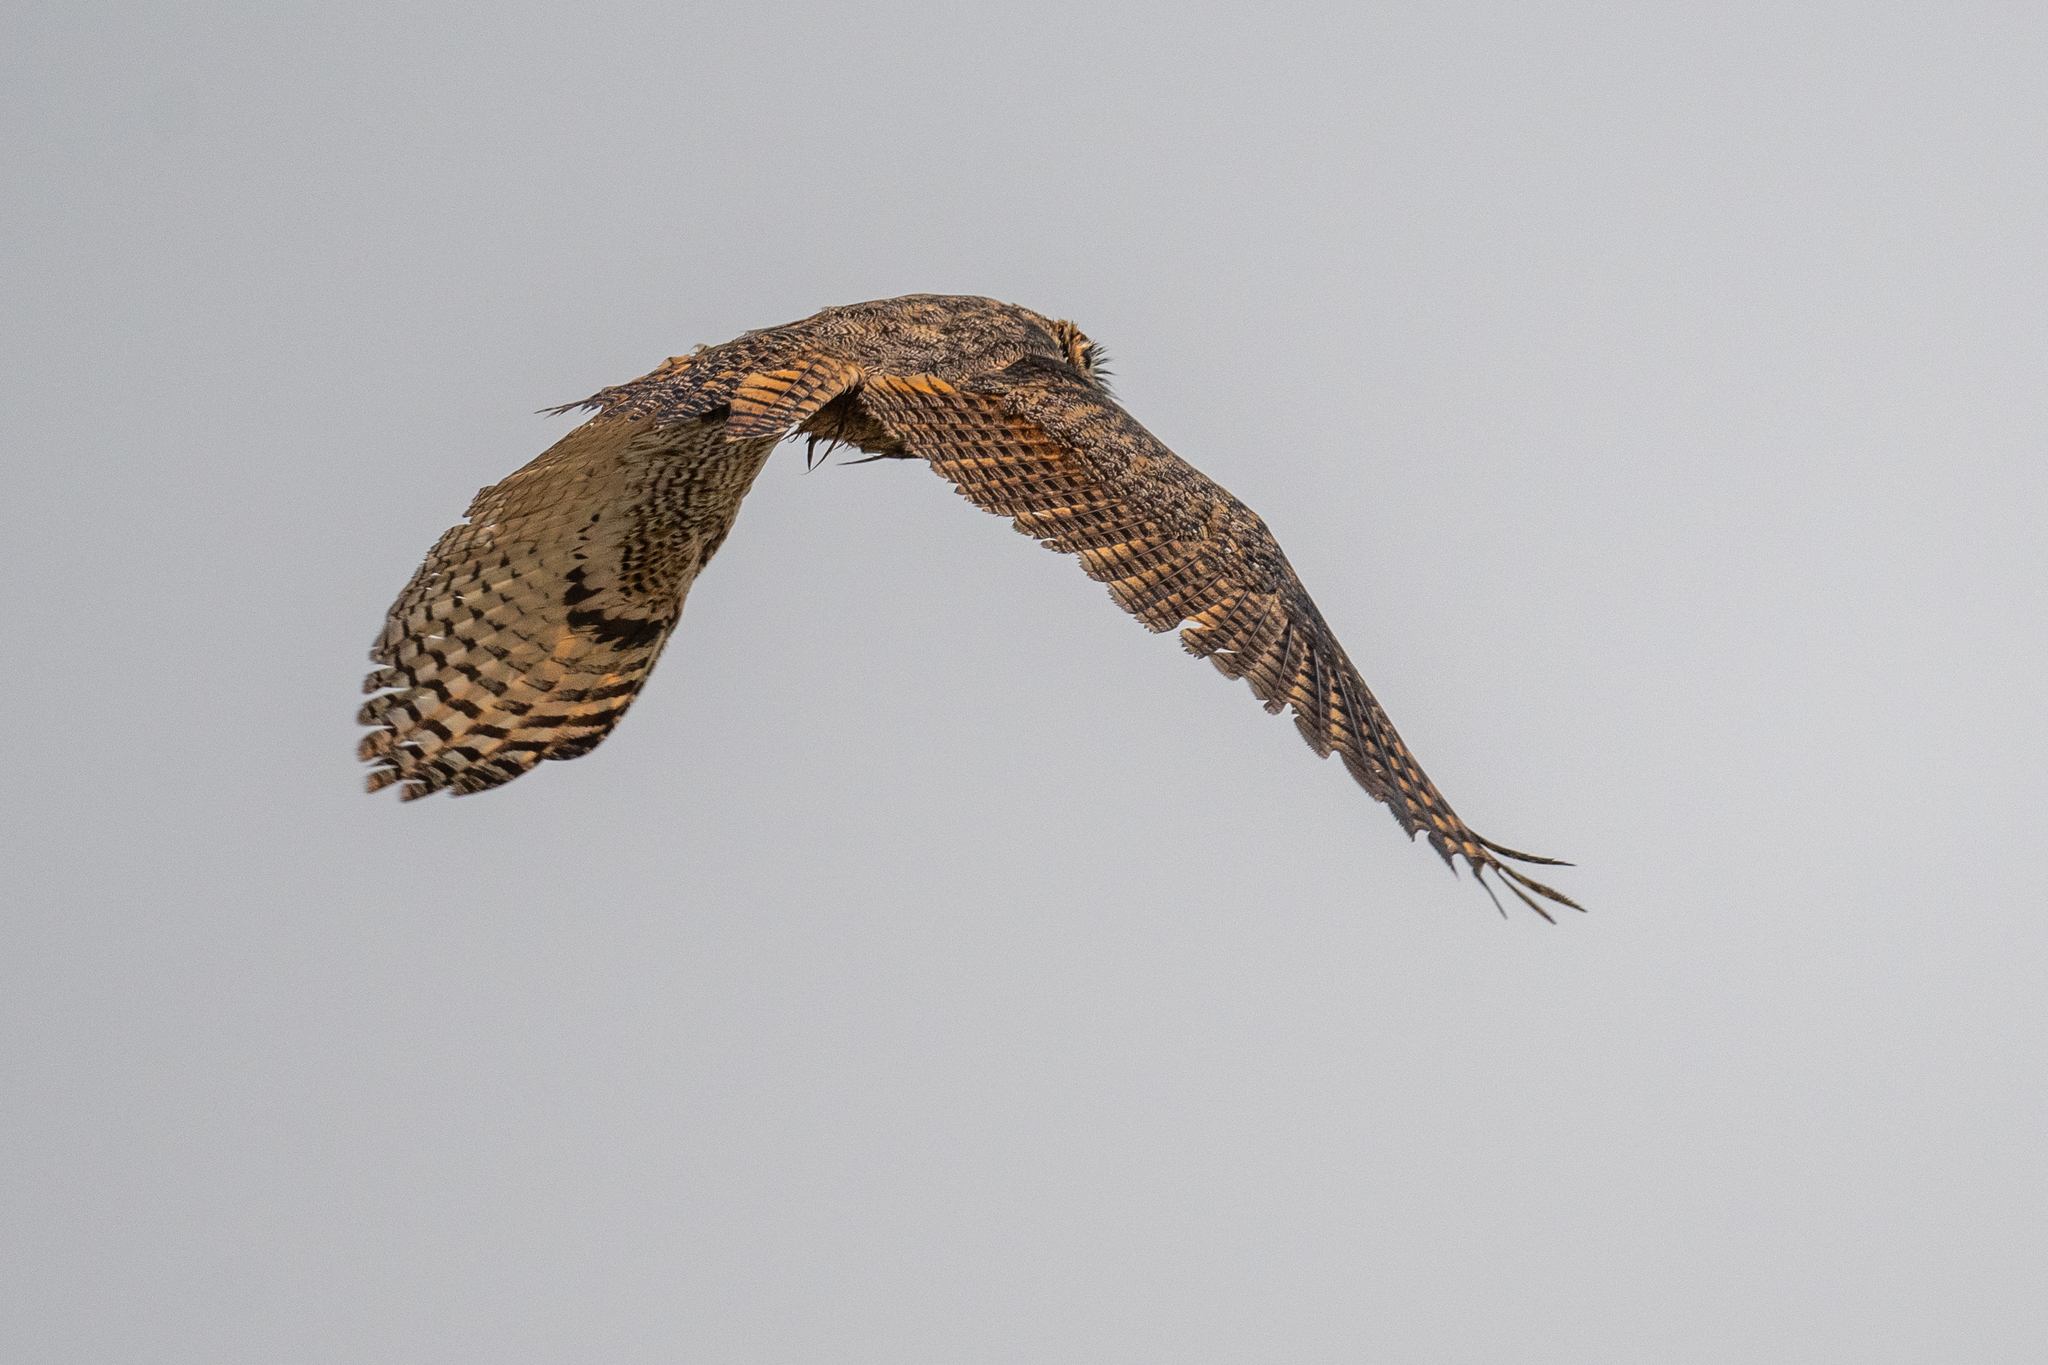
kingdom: Animalia
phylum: Chordata
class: Aves
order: Strigiformes
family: Strigidae
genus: Bubo
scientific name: Bubo virginianus
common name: Great horned owl
